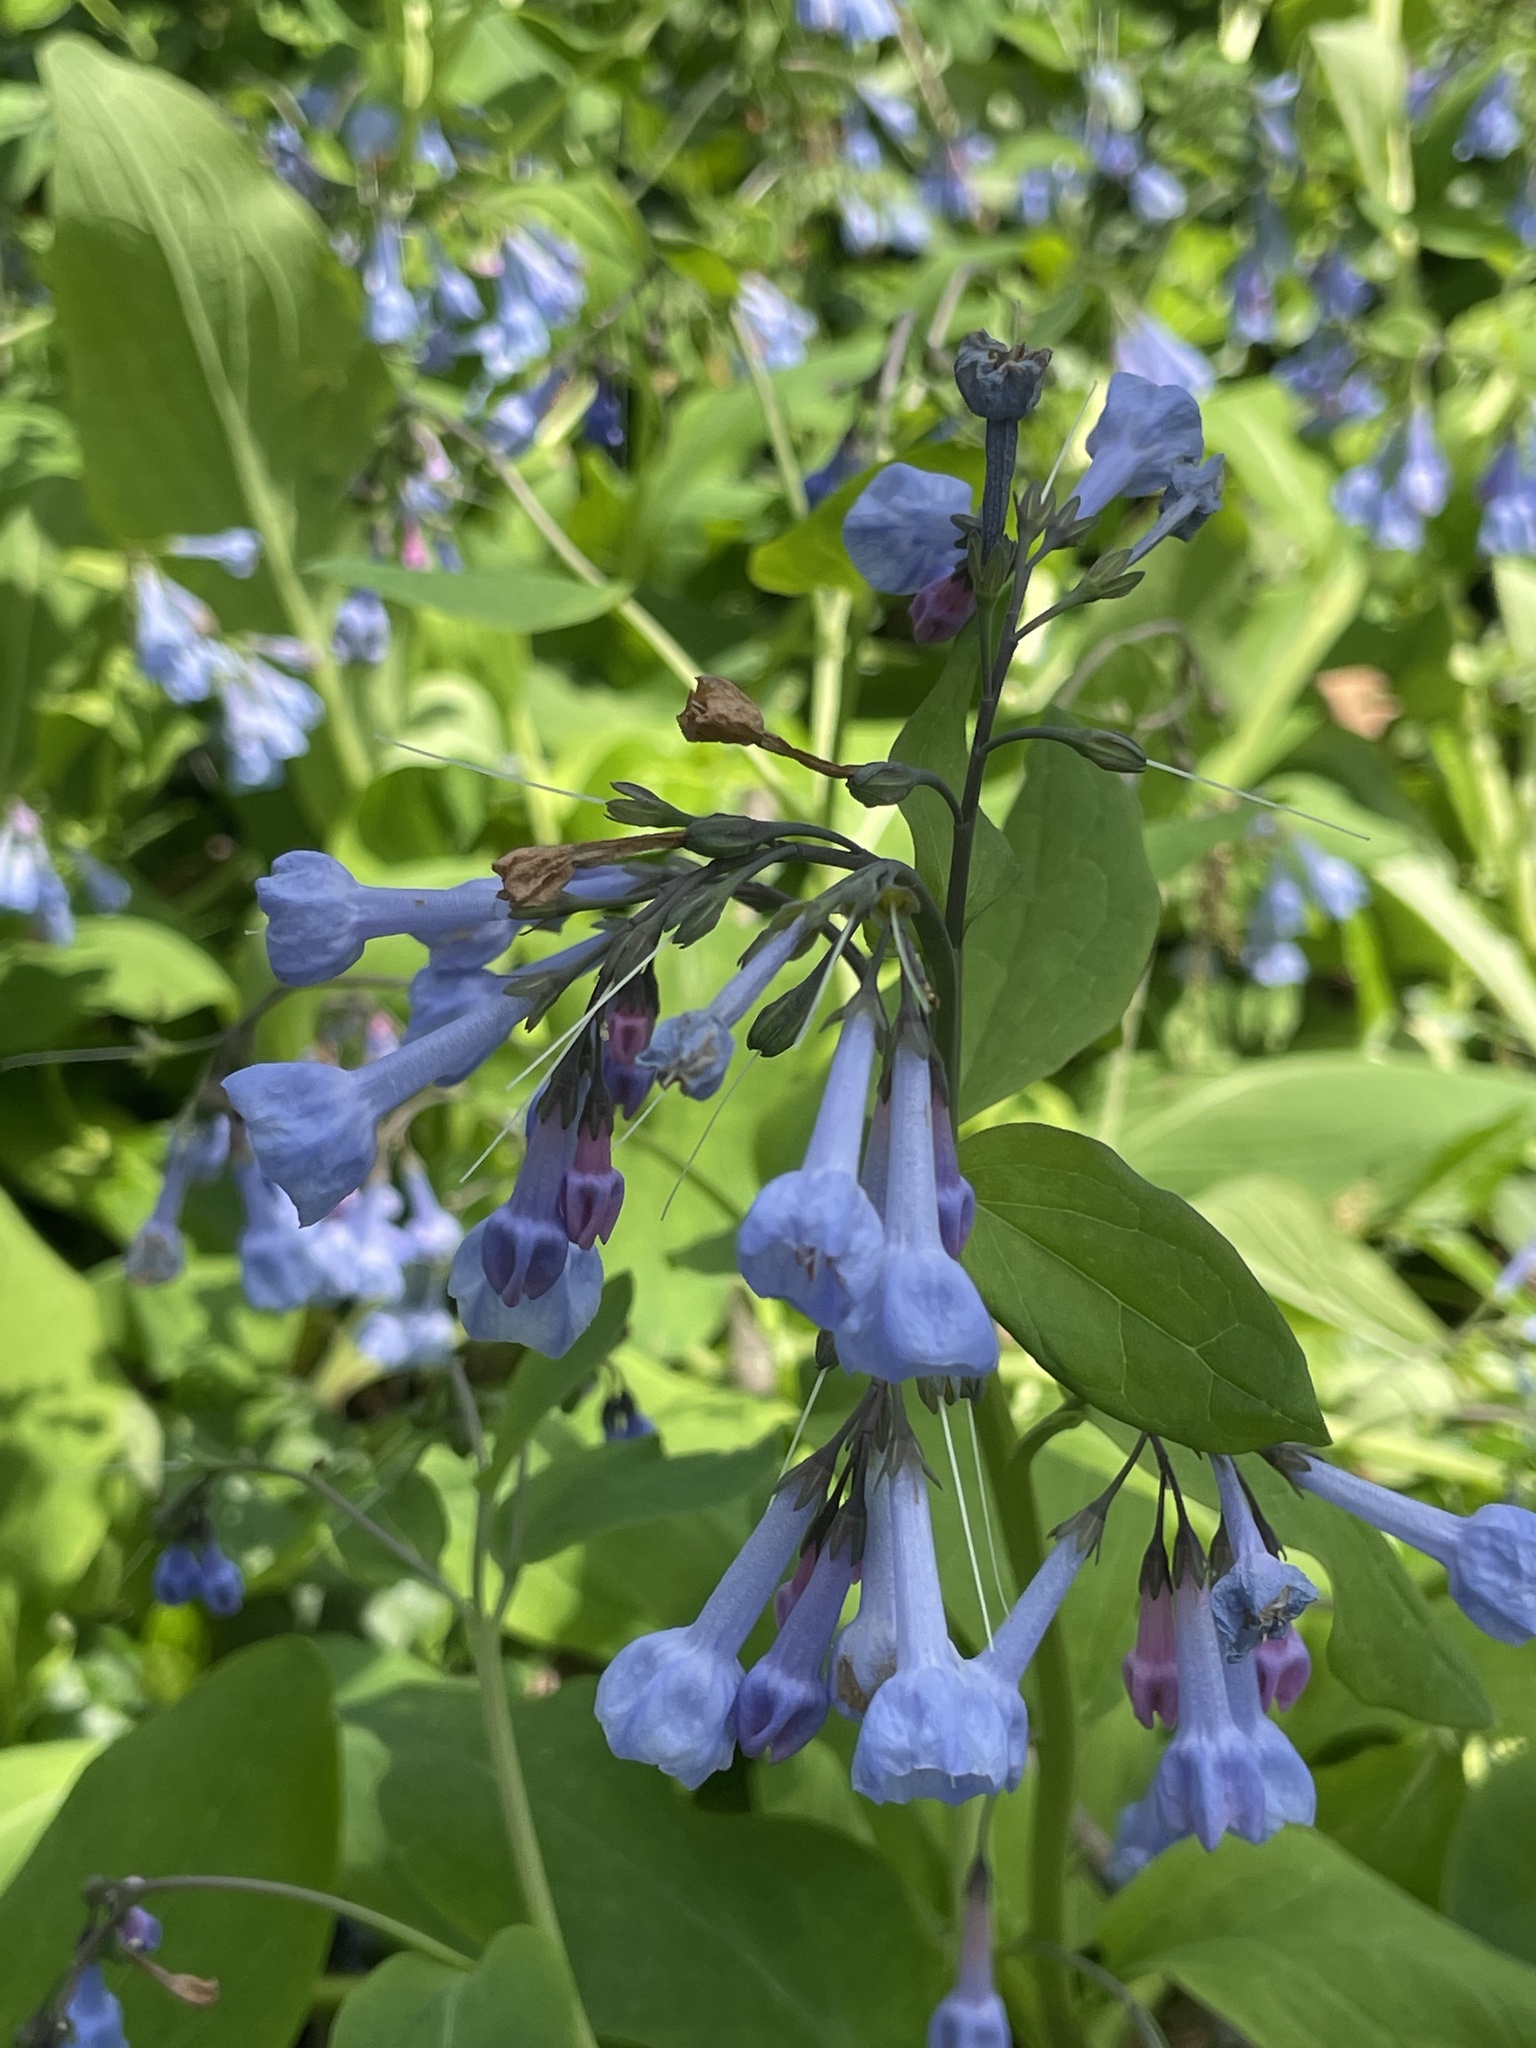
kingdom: Plantae
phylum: Tracheophyta
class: Magnoliopsida
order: Boraginales
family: Boraginaceae
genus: Mertensia
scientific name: Mertensia virginica
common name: Virginia bluebells
